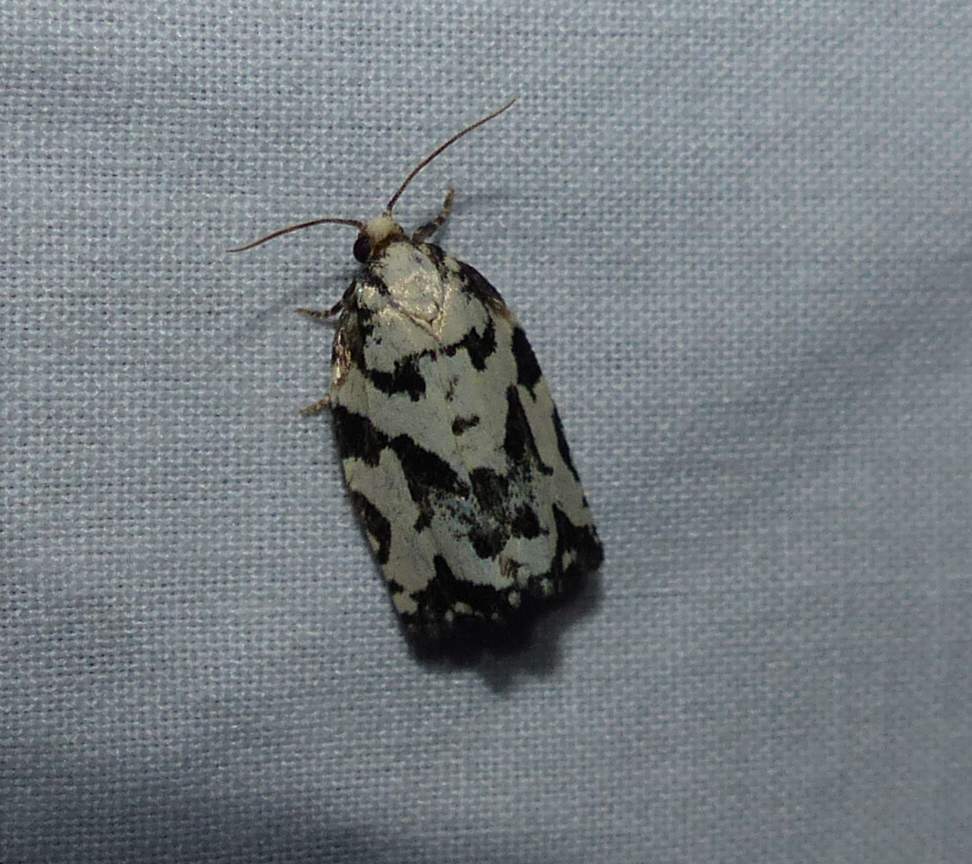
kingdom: Animalia
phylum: Arthropoda
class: Insecta
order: Lepidoptera
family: Tortricidae
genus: Archips
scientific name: Archips dissitana
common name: Boldly-marked archips moth
